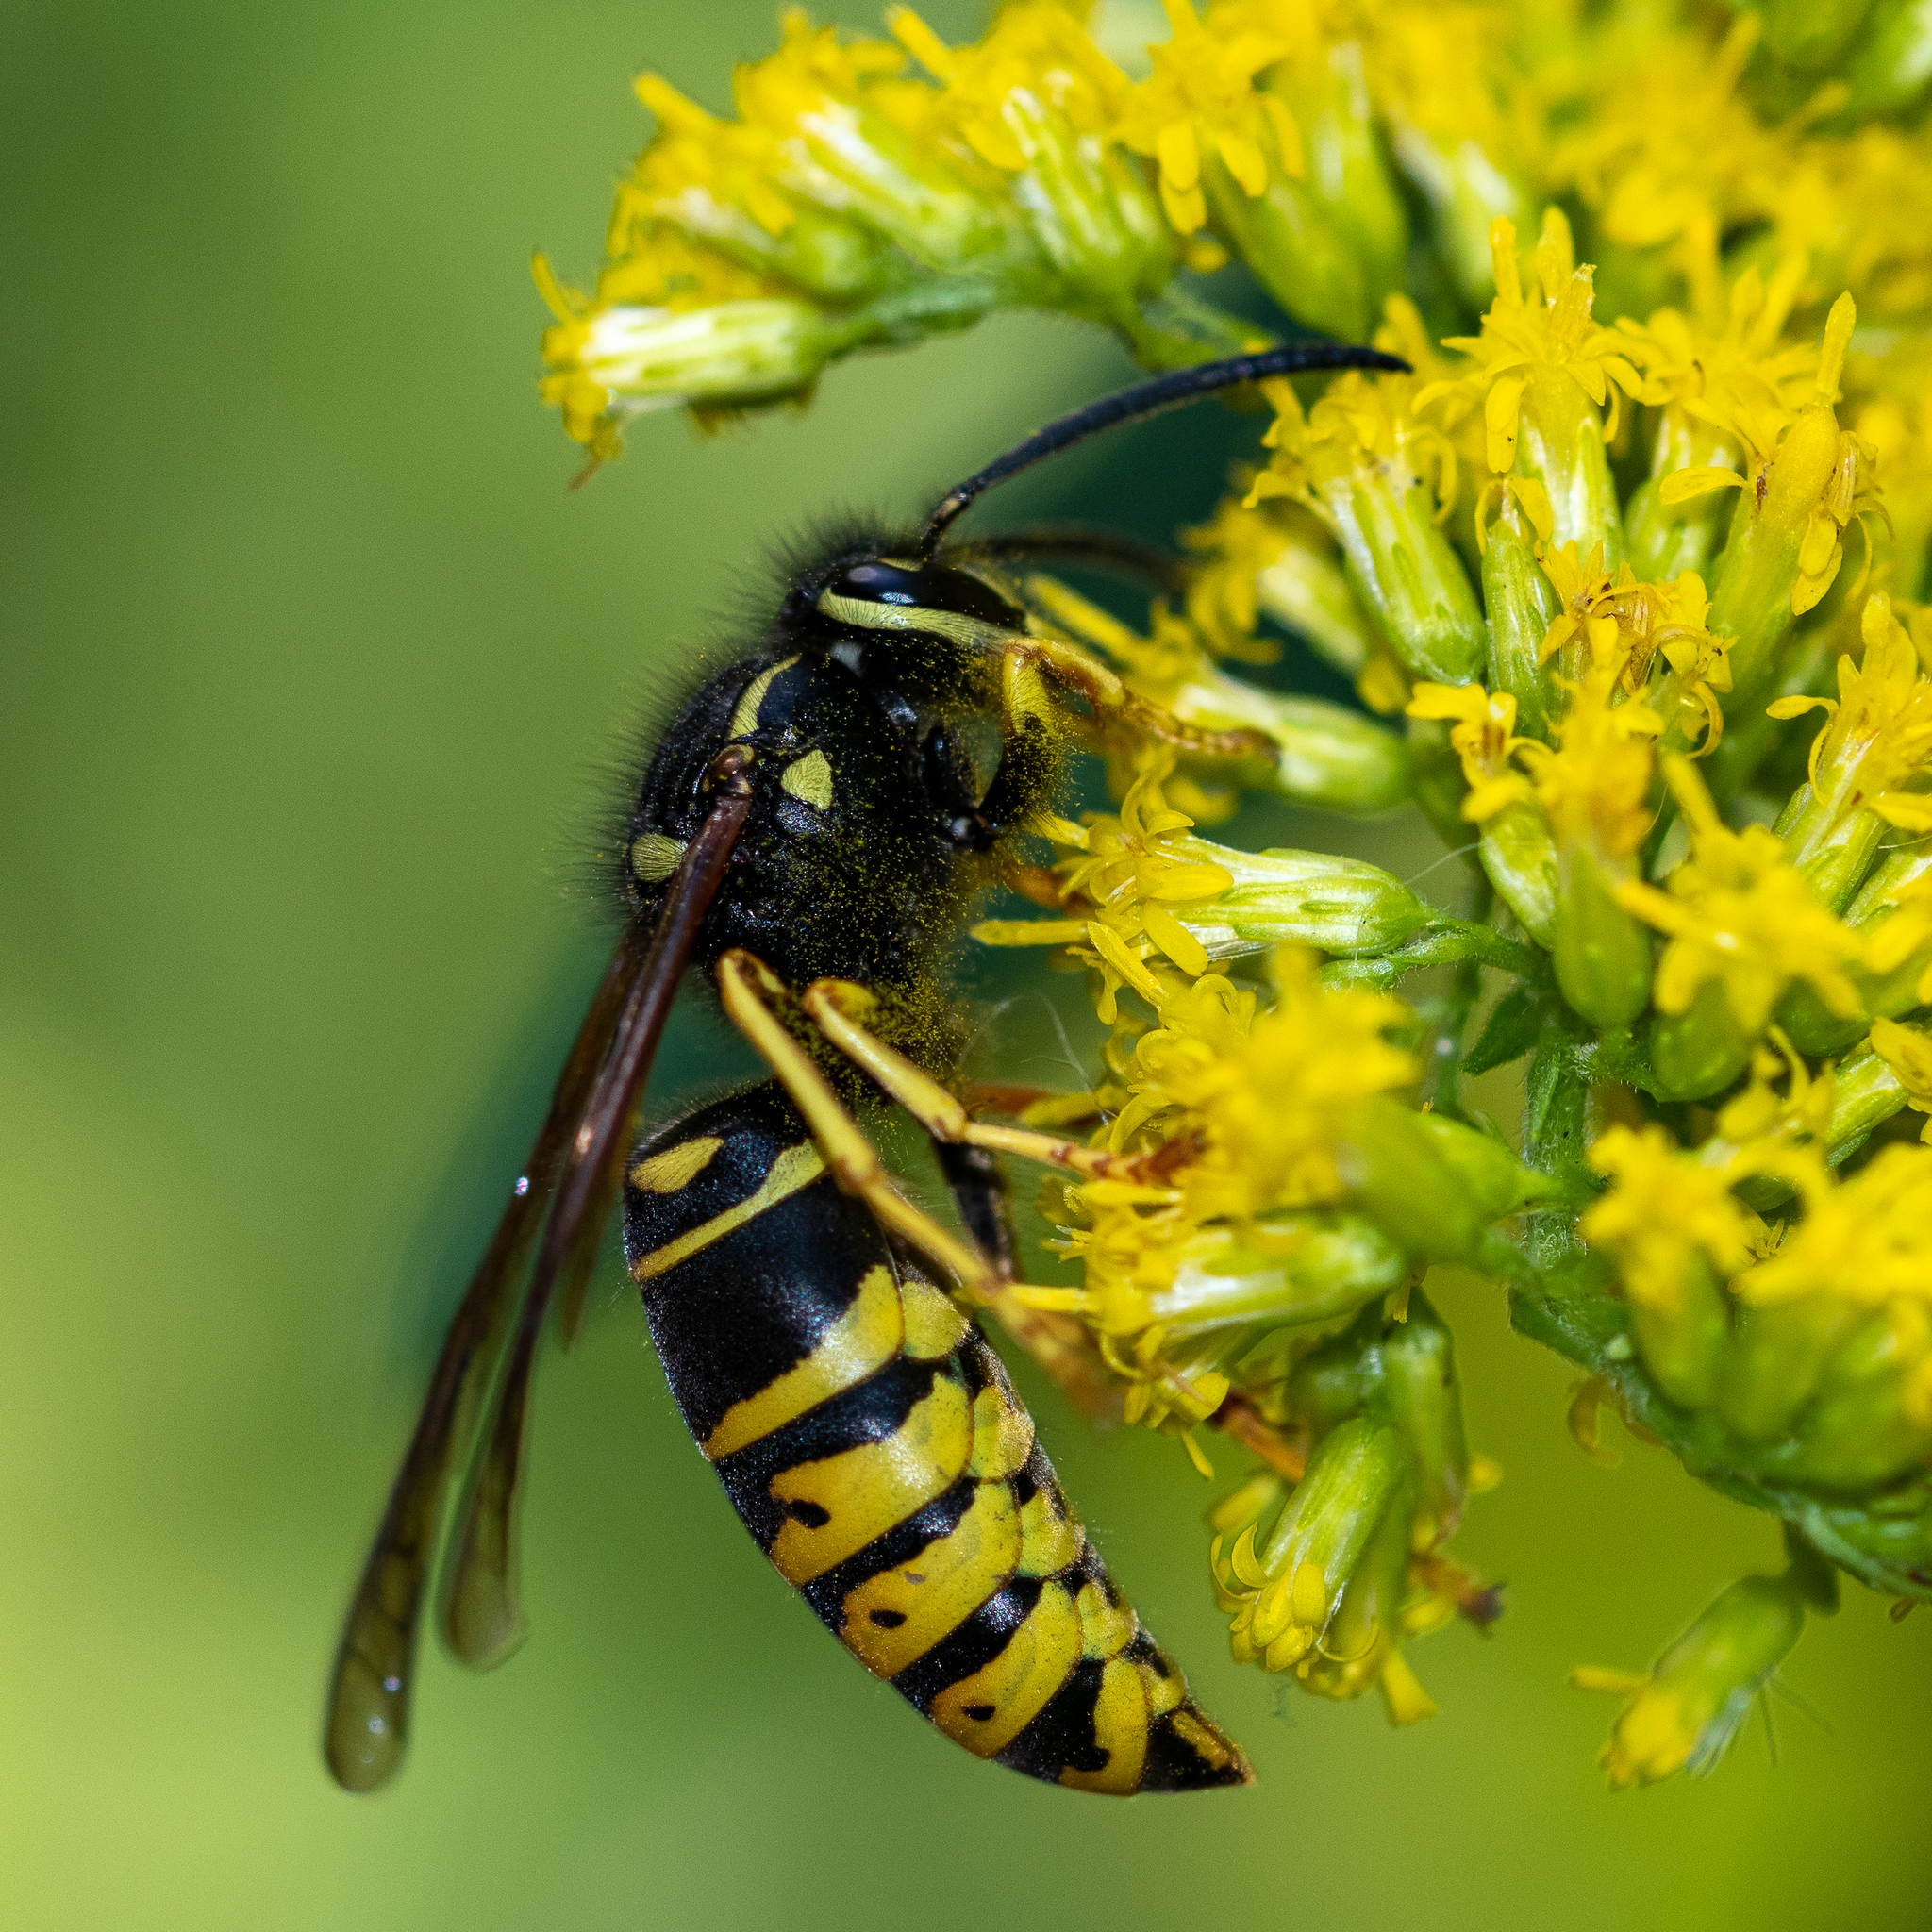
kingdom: Animalia
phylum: Arthropoda
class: Insecta
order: Hymenoptera
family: Vespidae
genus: Vespula
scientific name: Vespula vidua
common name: Widow yellowjacket
